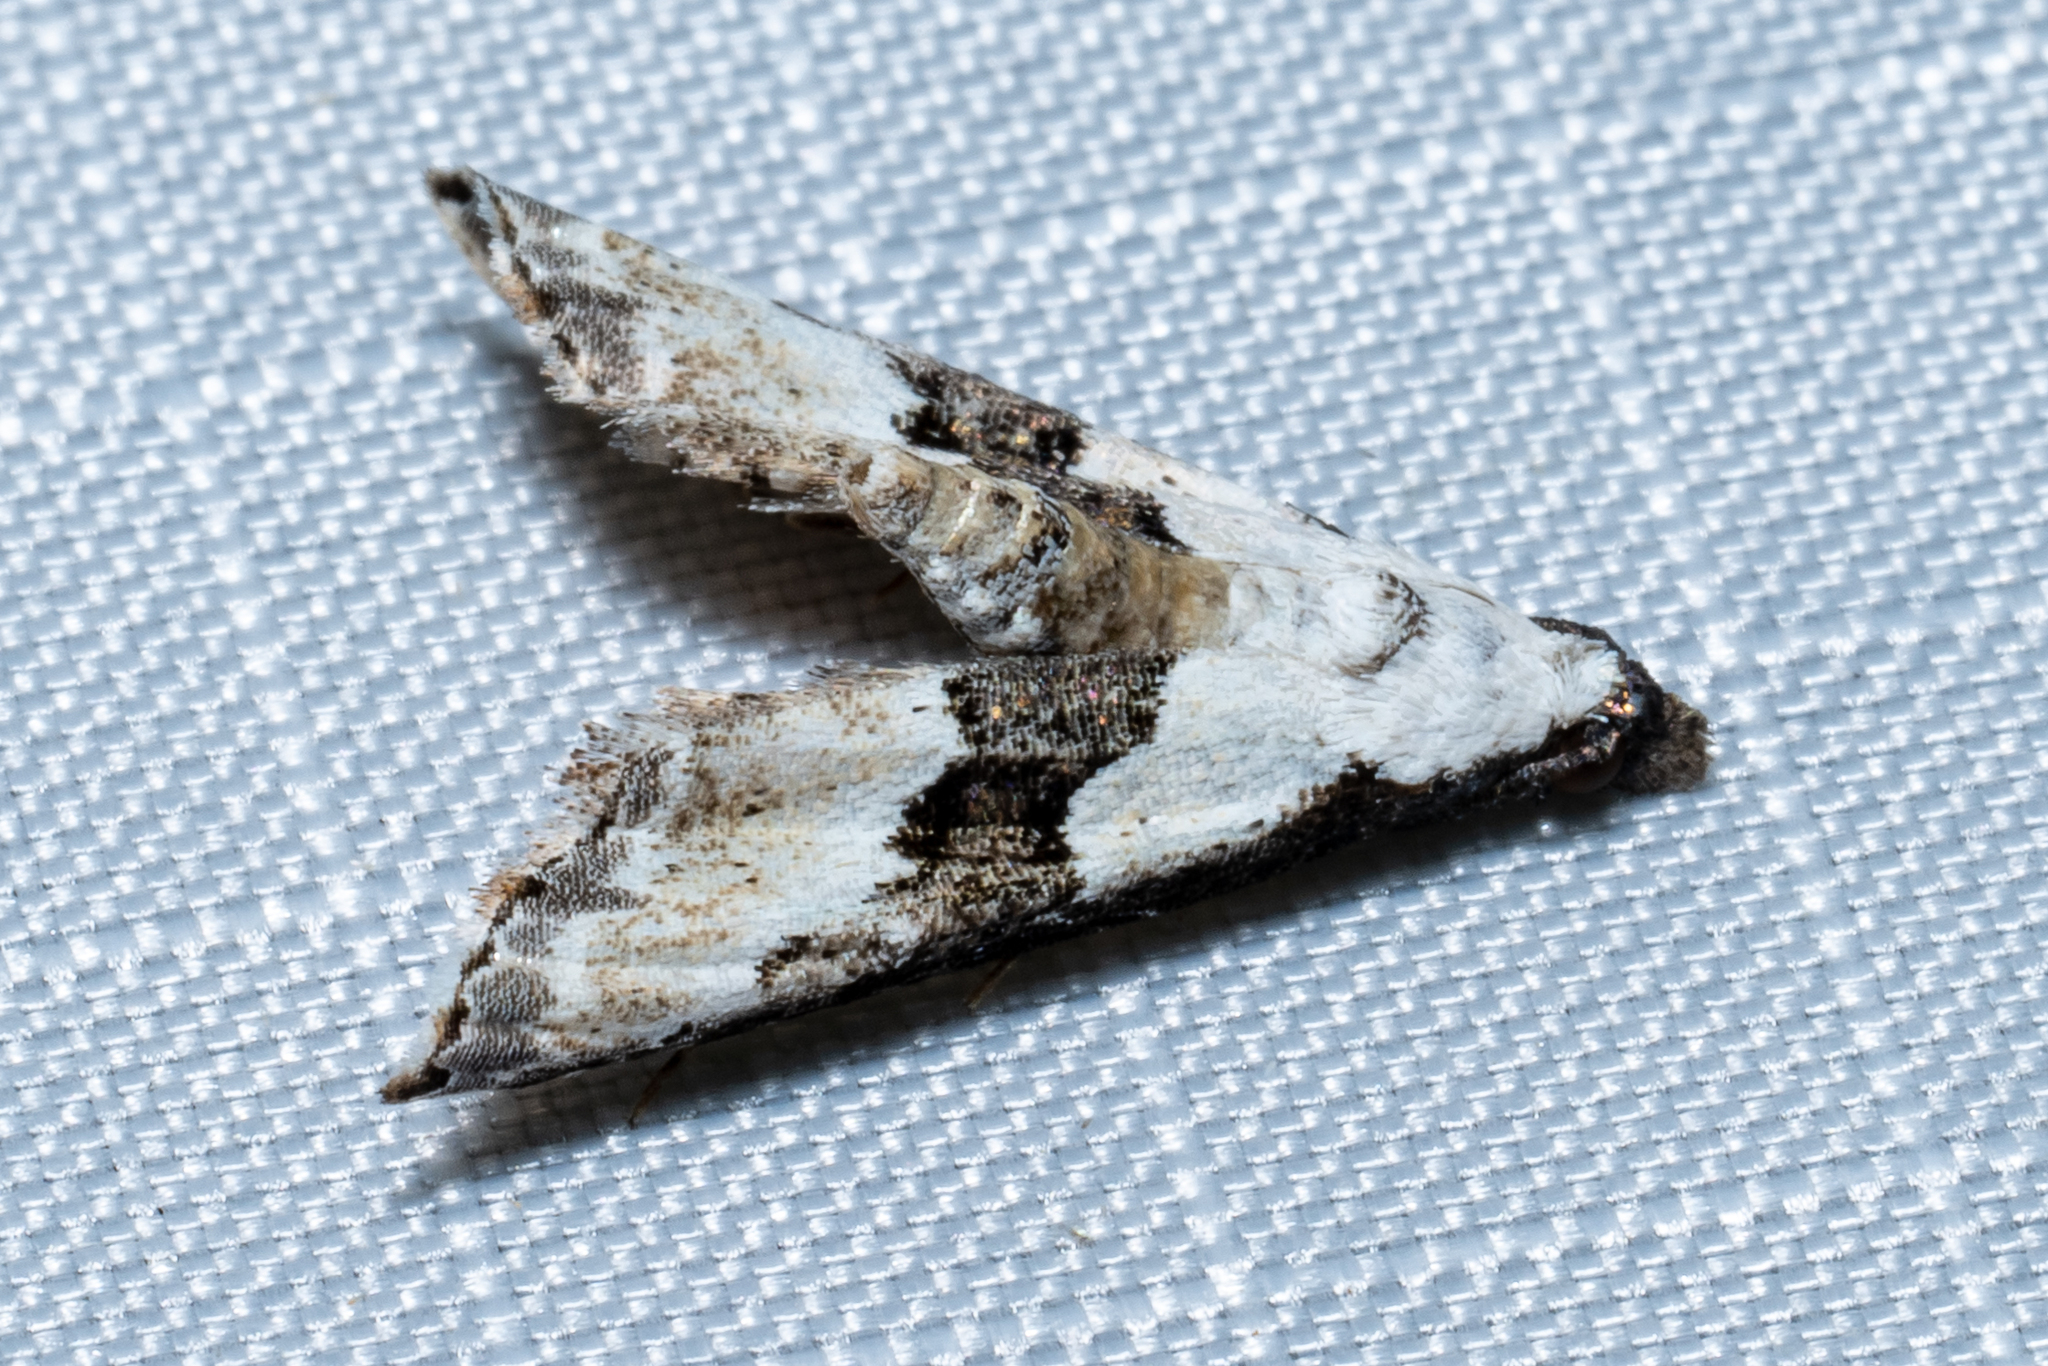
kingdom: Animalia
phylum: Arthropoda
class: Insecta
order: Lepidoptera
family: Noctuidae
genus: Nigetia
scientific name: Nigetia formosalis
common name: Thin-winged owlet
